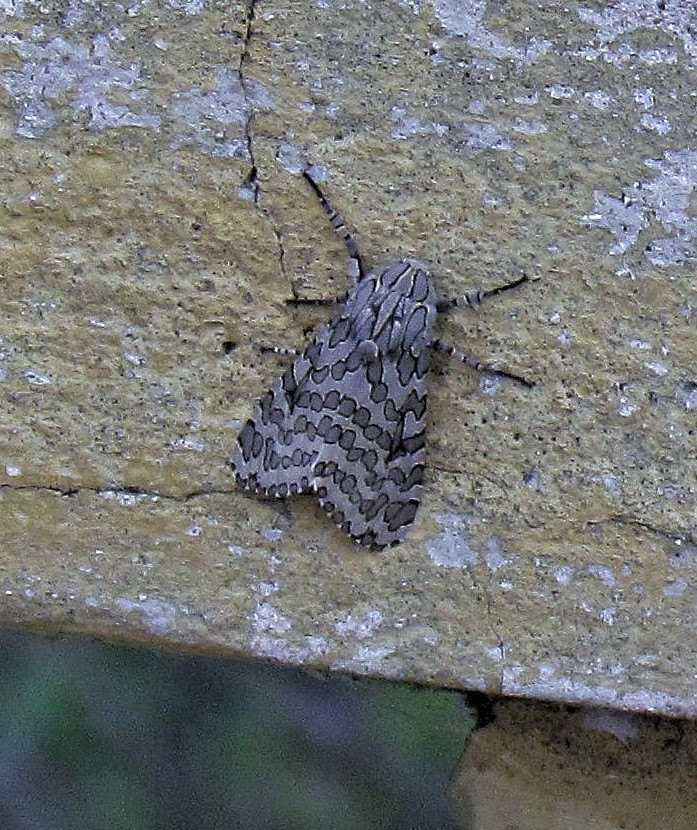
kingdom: Animalia
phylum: Arthropoda
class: Insecta
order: Lepidoptera
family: Erebidae
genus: Hypercompe
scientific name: Hypercompe indecisa
